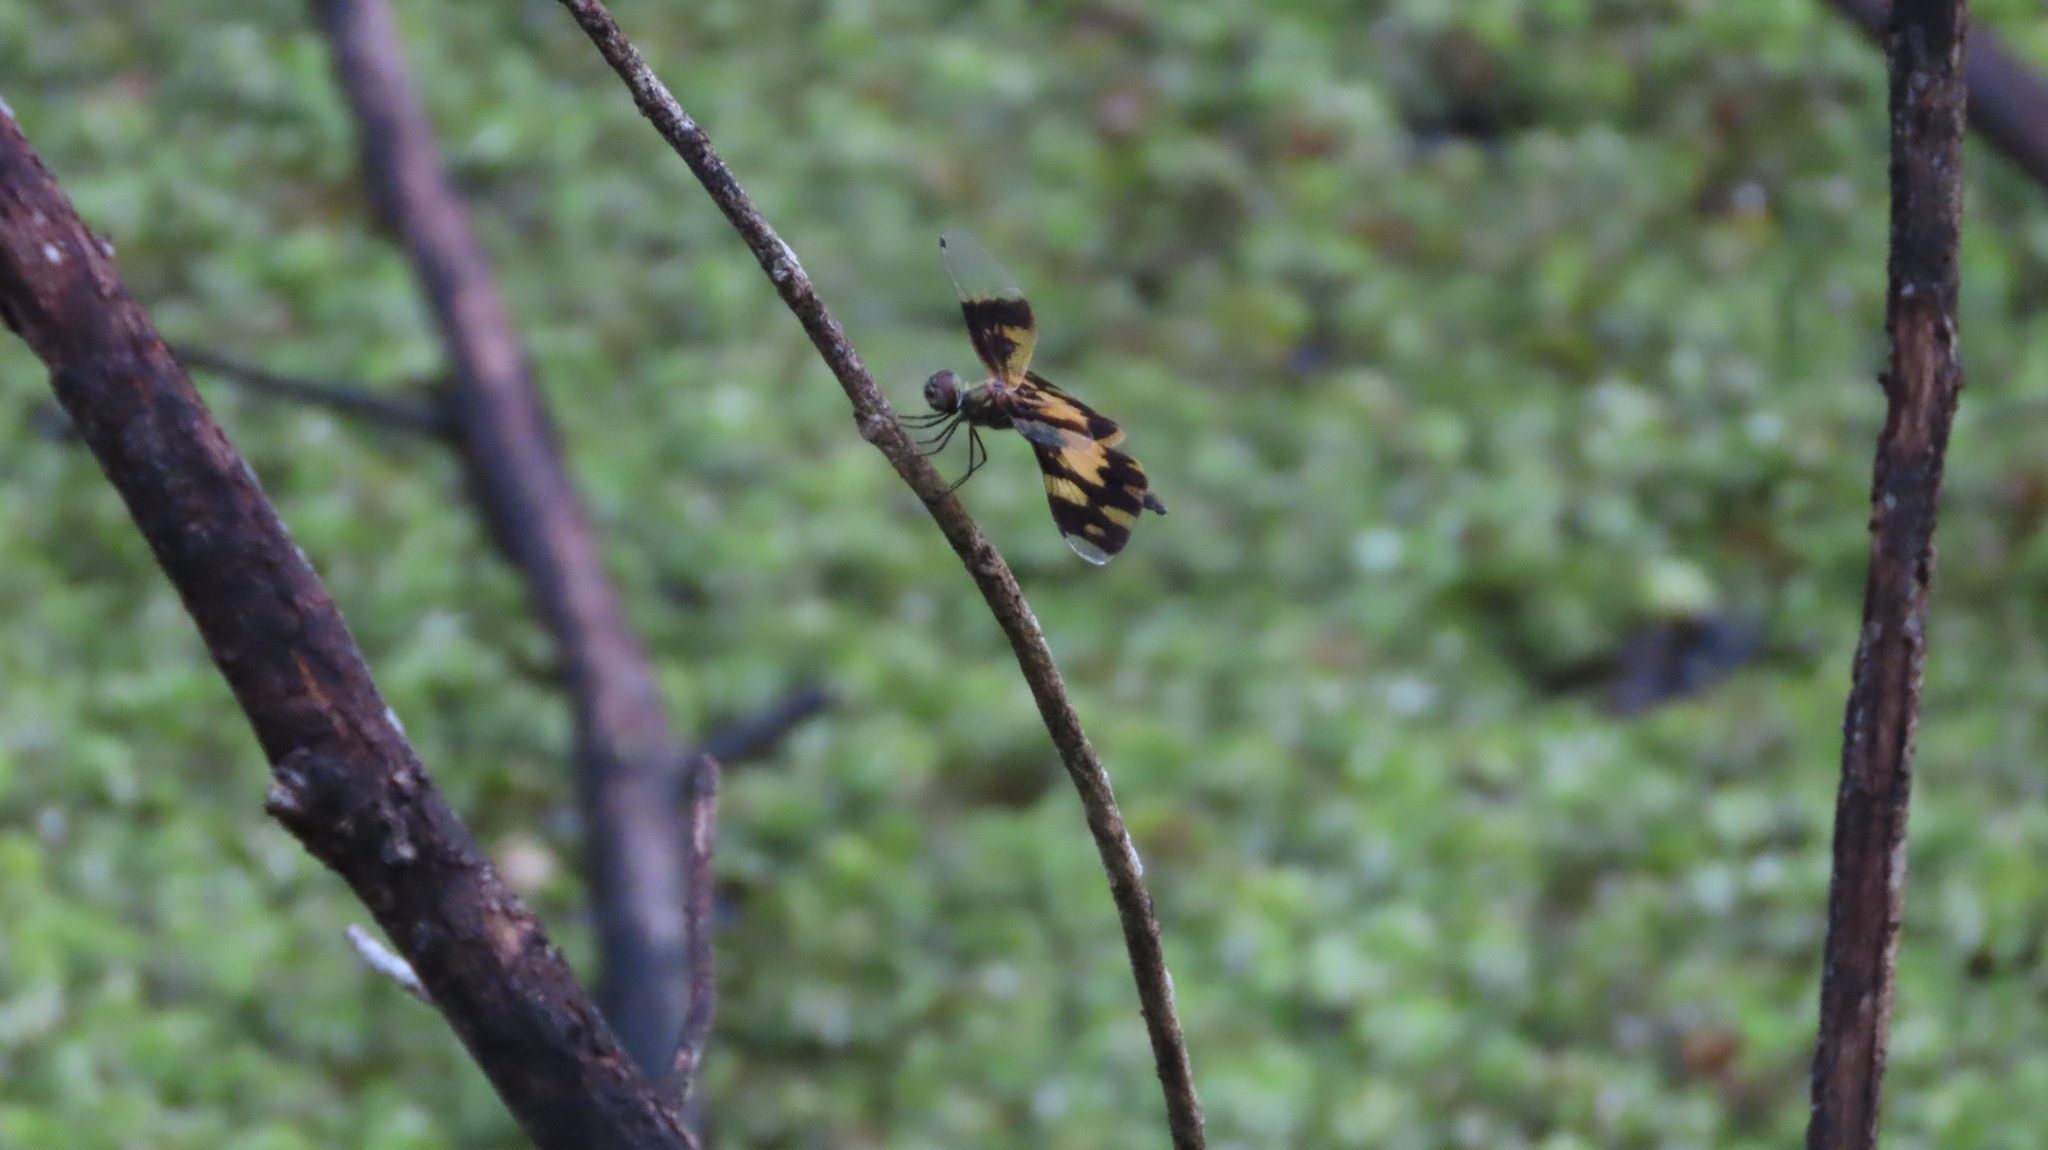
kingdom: Animalia
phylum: Arthropoda
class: Insecta
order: Odonata
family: Libellulidae
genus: Rhyothemis
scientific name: Rhyothemis variegata
